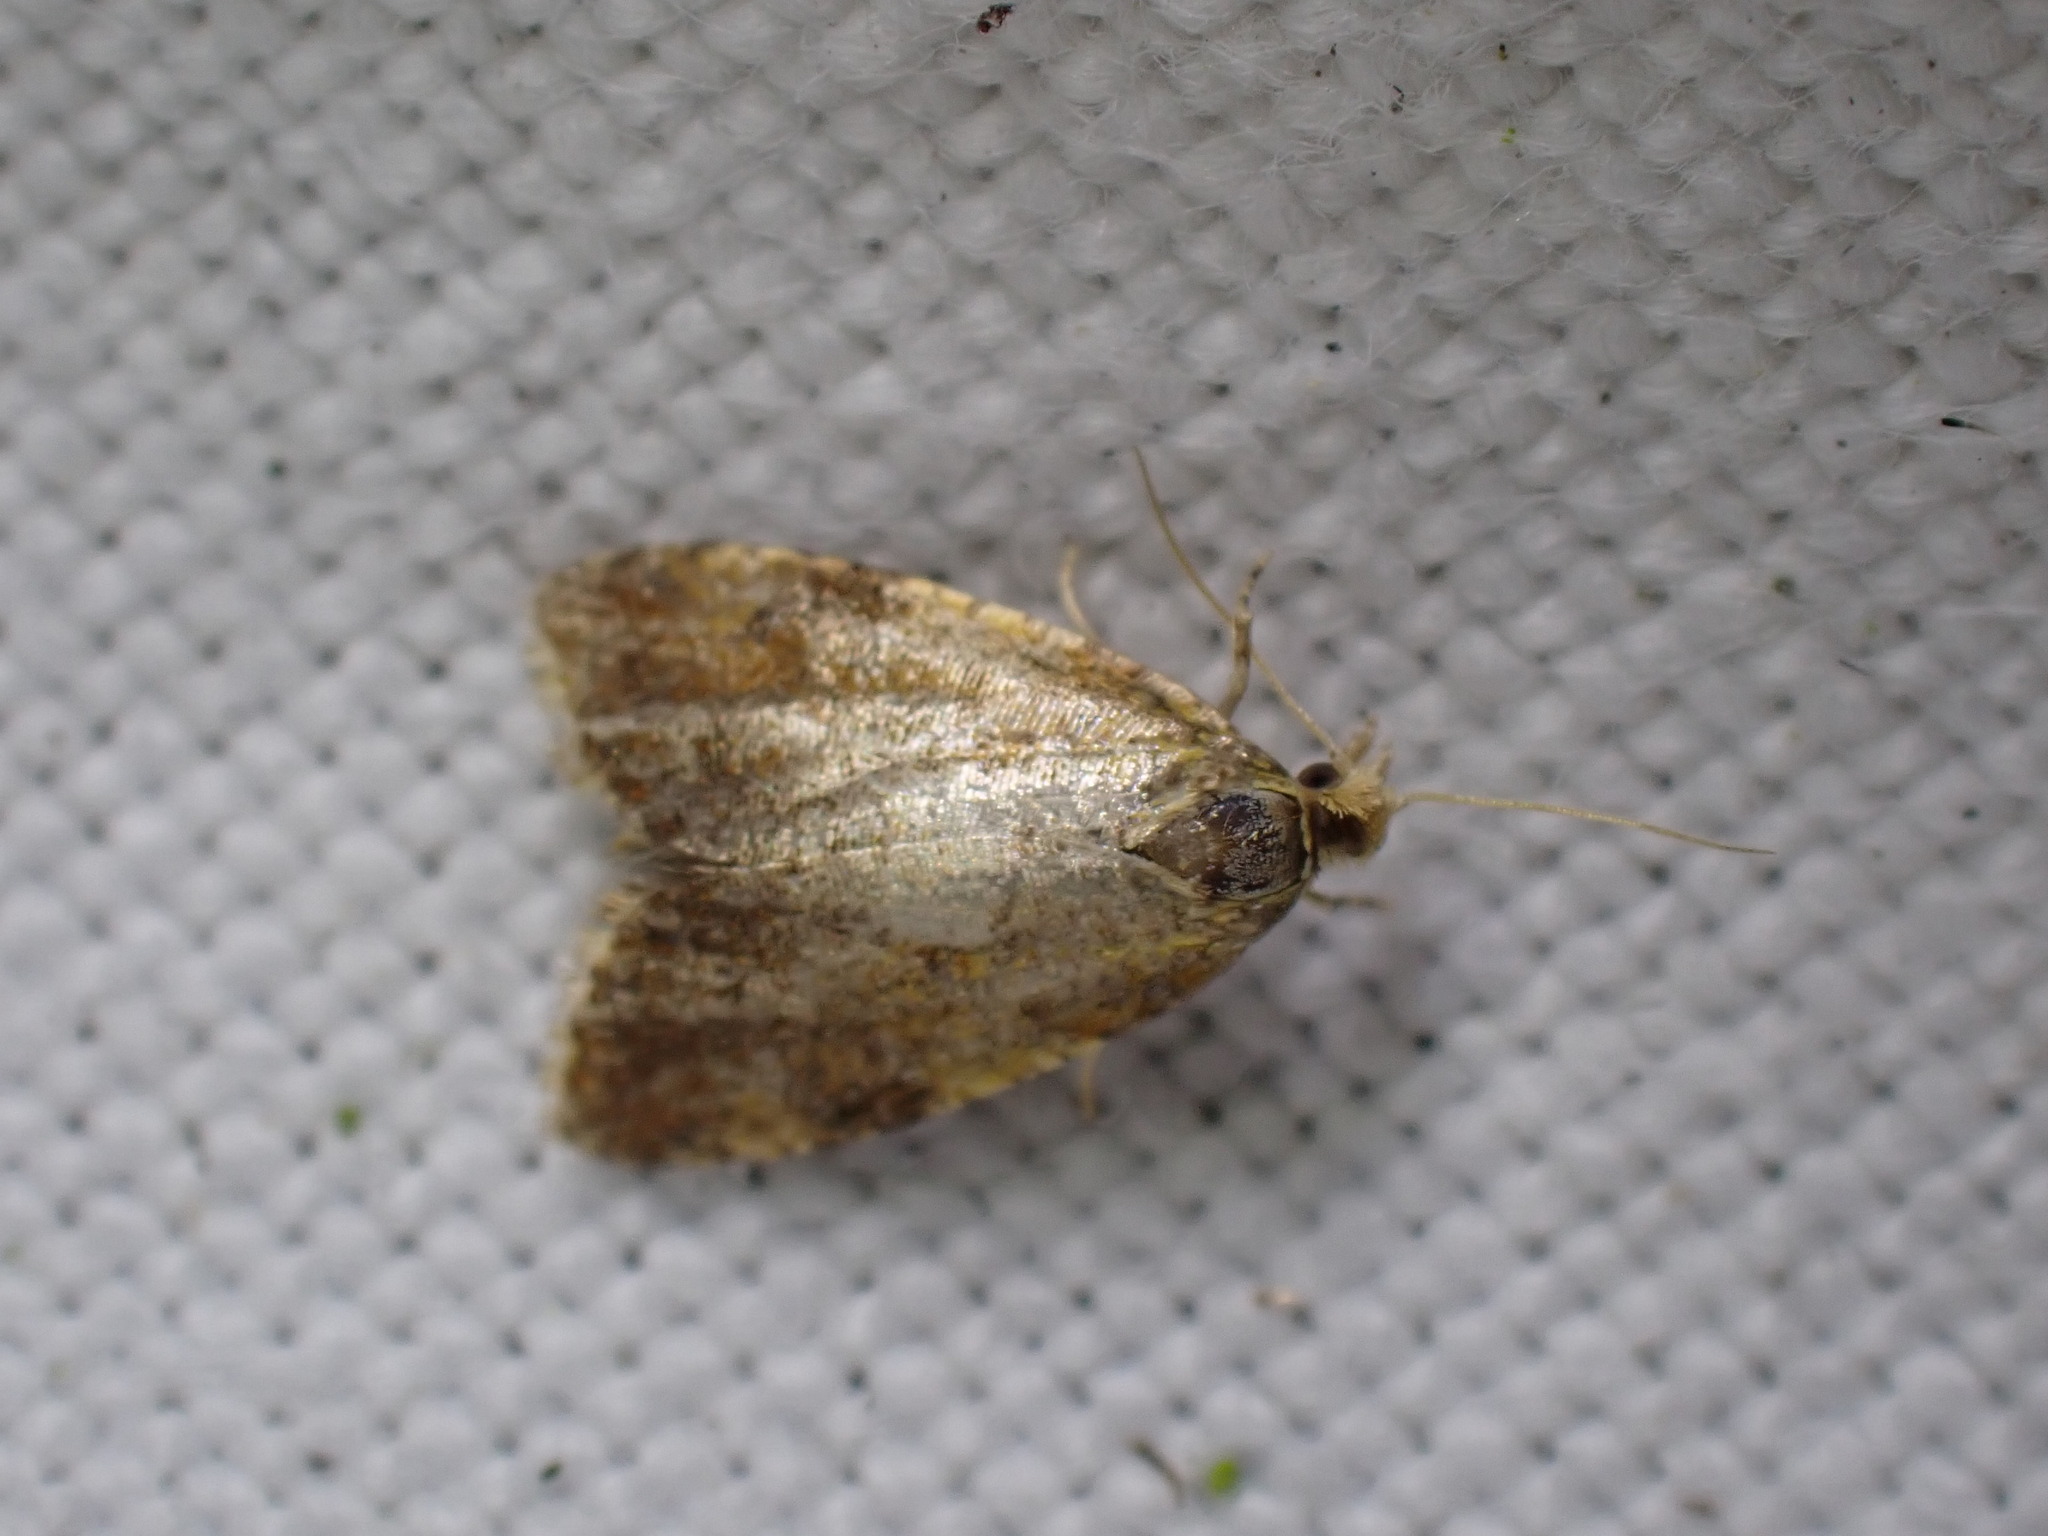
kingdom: Animalia
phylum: Arthropoda
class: Insecta
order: Lepidoptera
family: Tortricidae
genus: Pseudargyrotoza
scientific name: Pseudargyrotoza conwagana
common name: Yellow-spot twist
